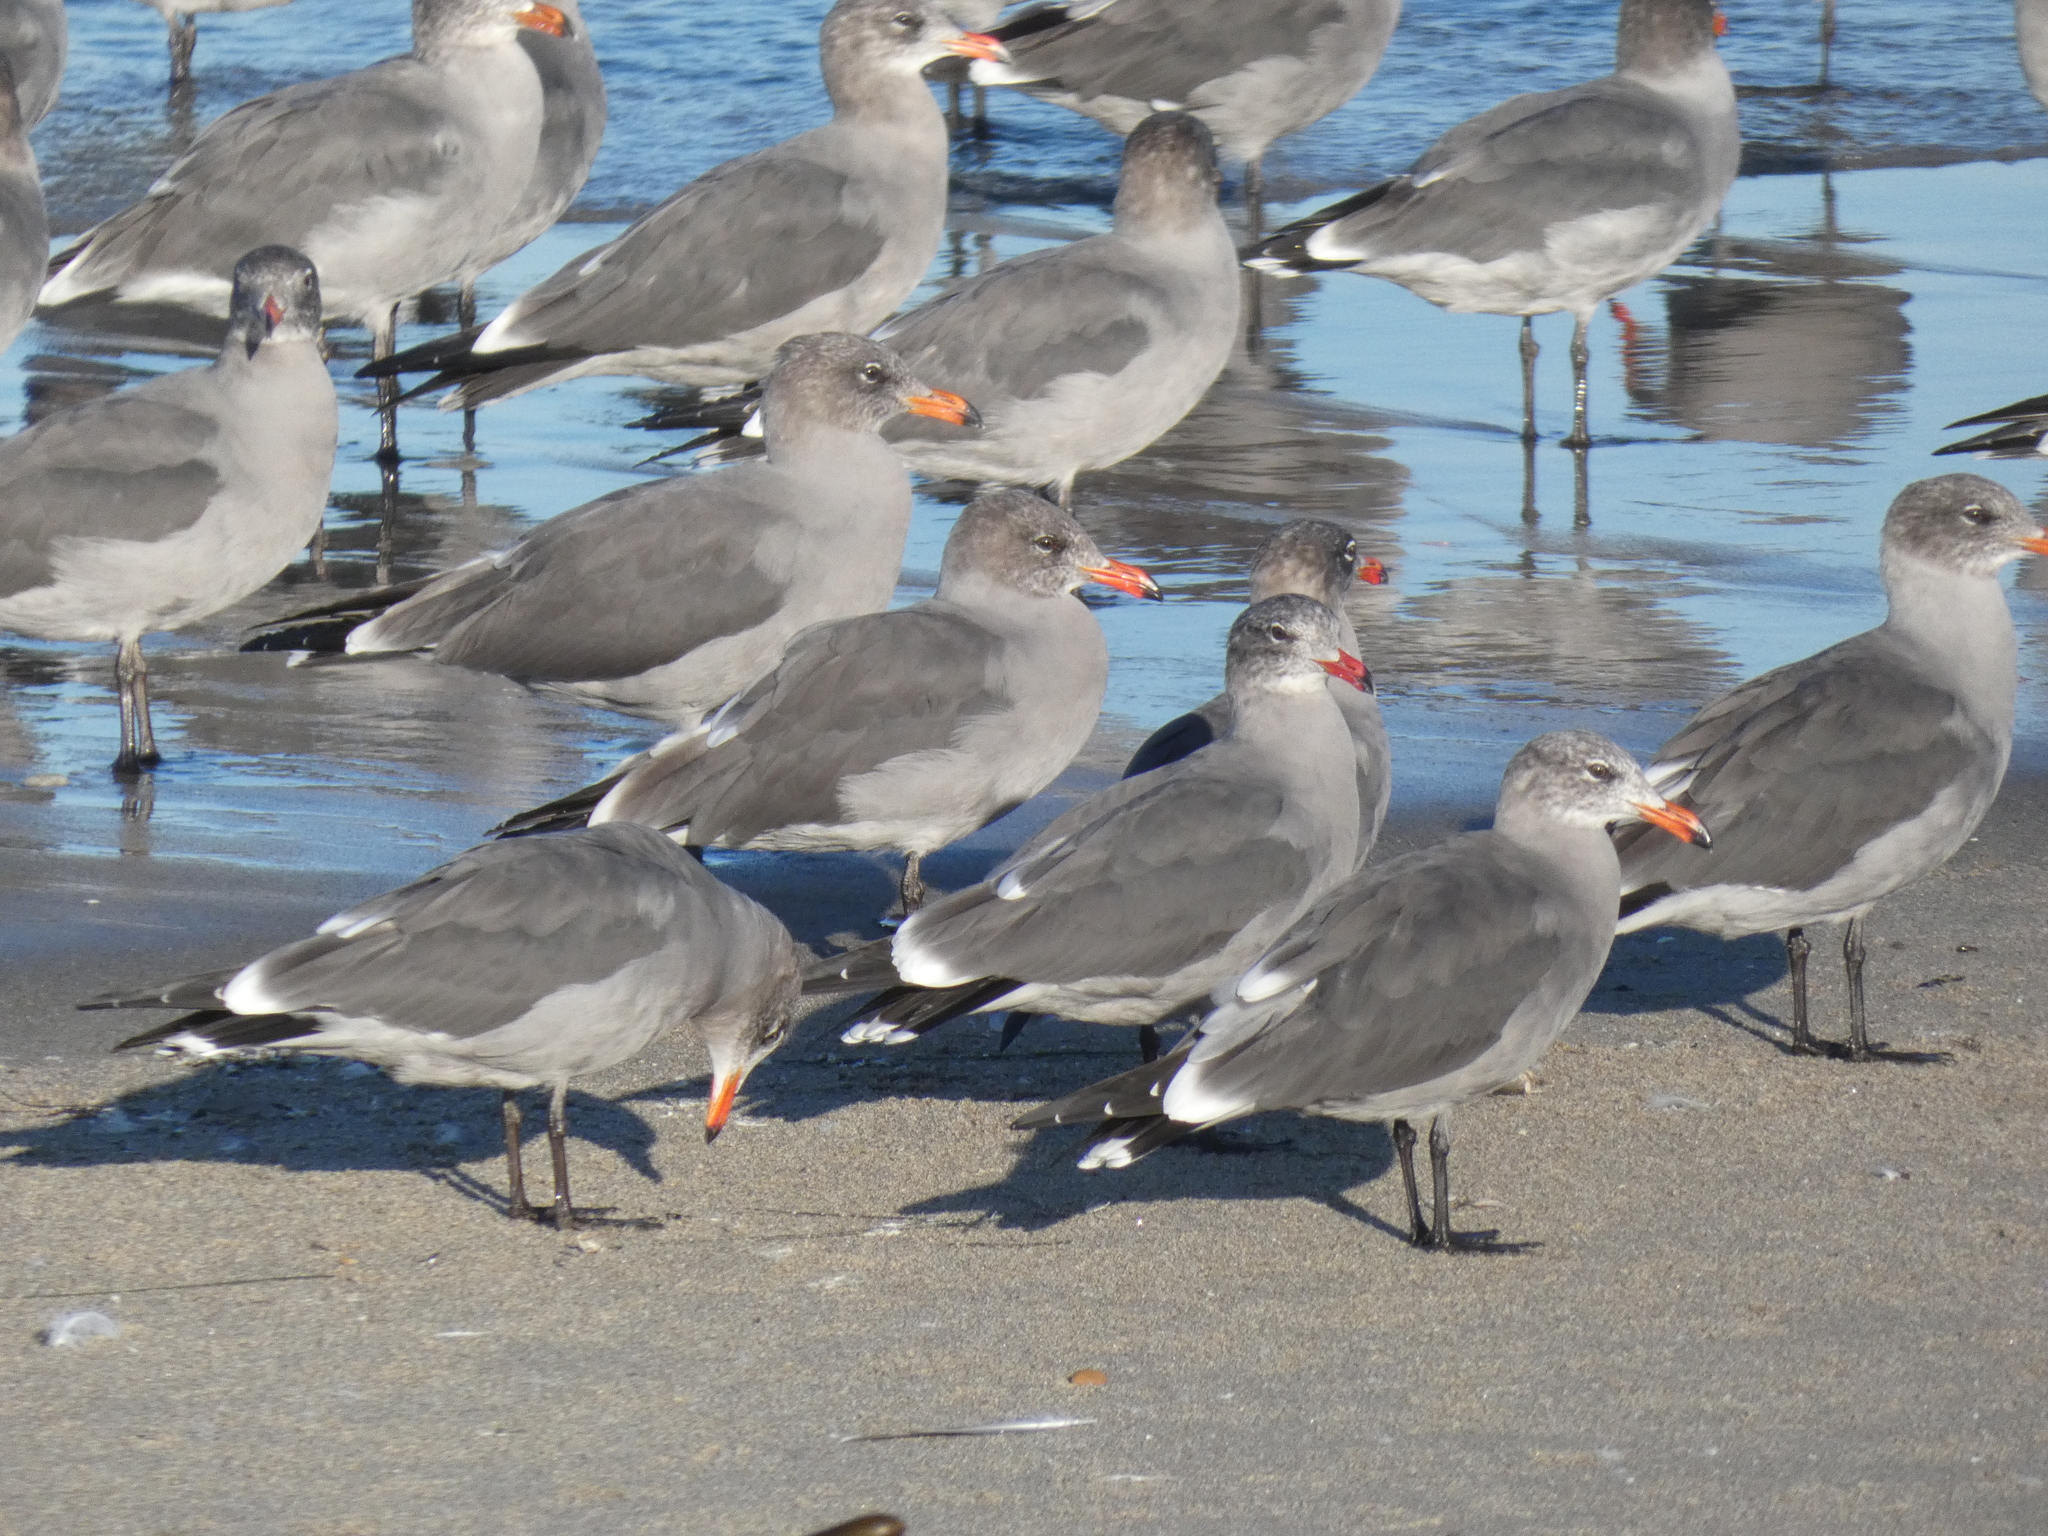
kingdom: Animalia
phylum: Chordata
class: Aves
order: Charadriiformes
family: Laridae
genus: Larus
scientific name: Larus heermanni
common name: Heermann's gull
